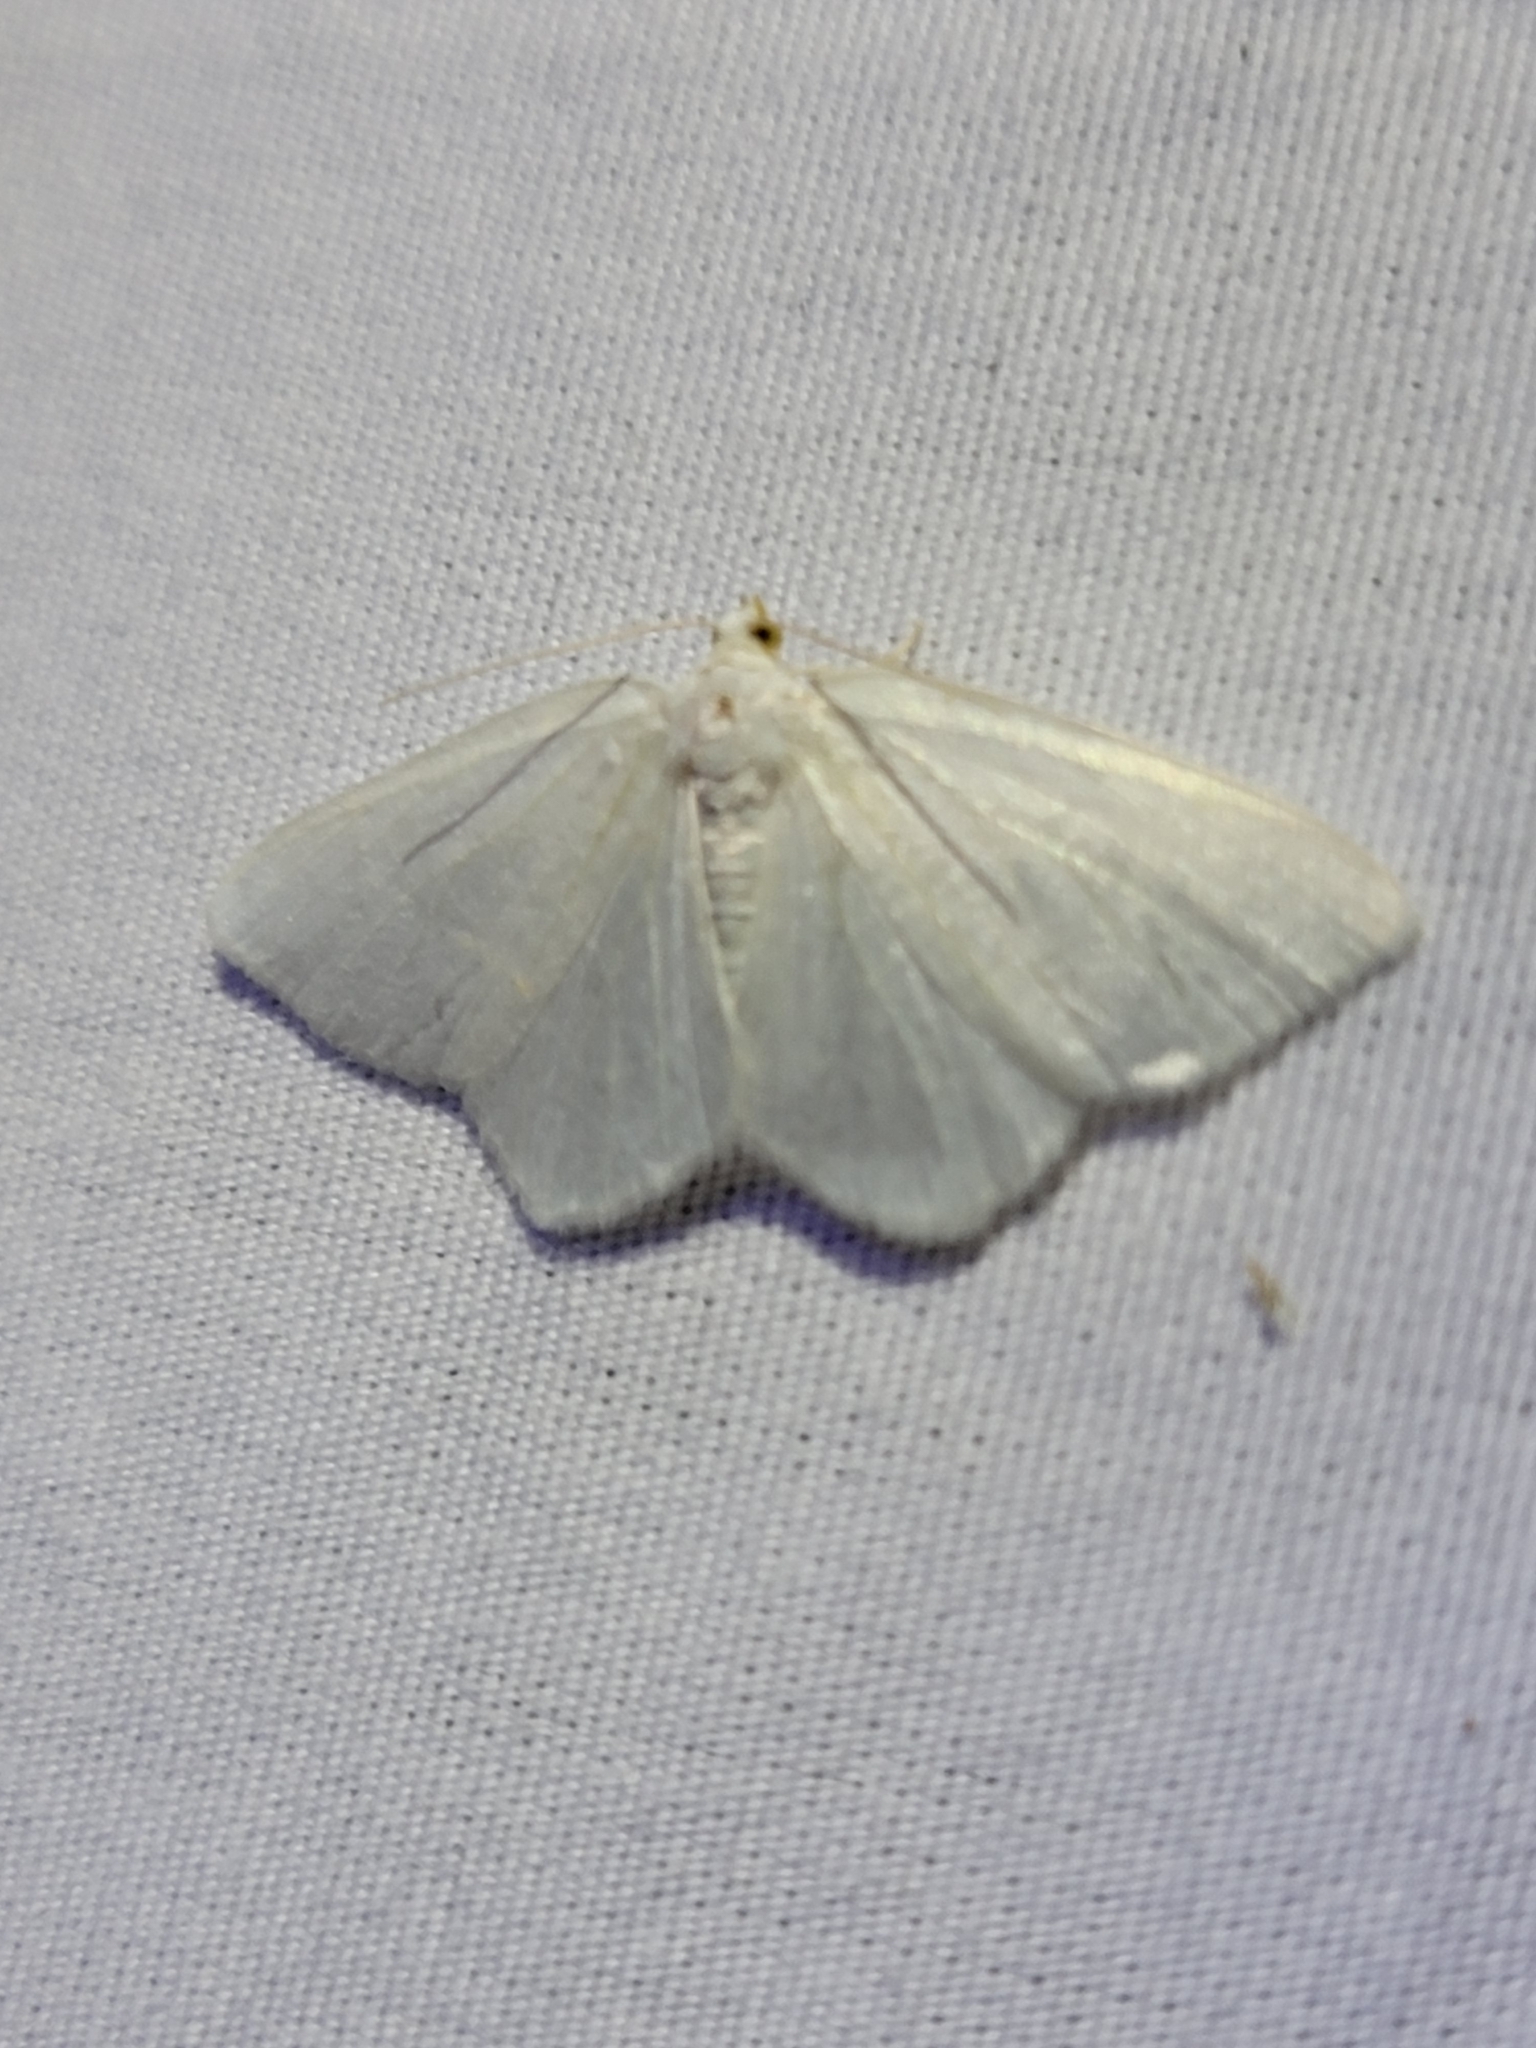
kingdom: Animalia
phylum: Arthropoda
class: Insecta
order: Lepidoptera
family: Geometridae
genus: Macaria
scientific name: Macaria pustularia
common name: Lesser maple spanworm moth
